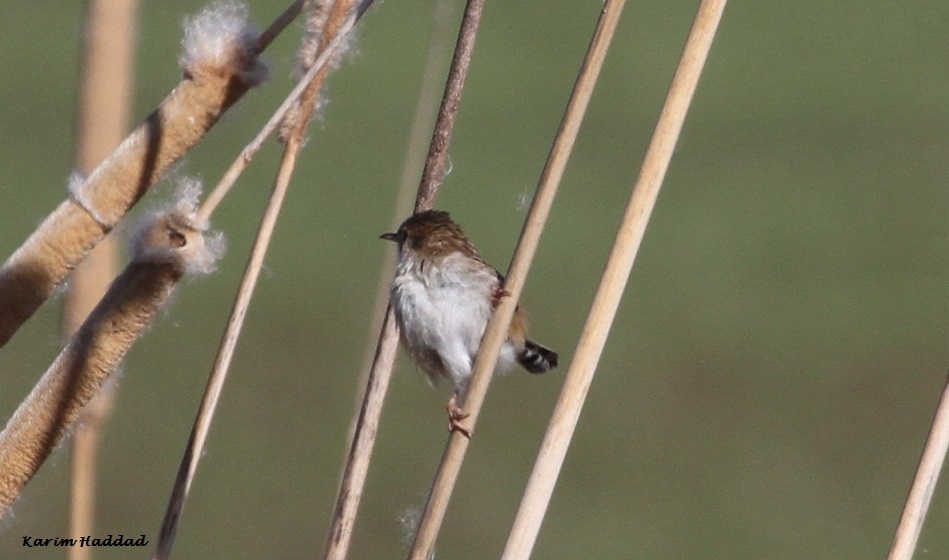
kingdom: Animalia
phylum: Chordata
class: Aves
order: Passeriformes
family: Cisticolidae
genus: Cisticola
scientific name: Cisticola juncidis
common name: Zitting cisticola
